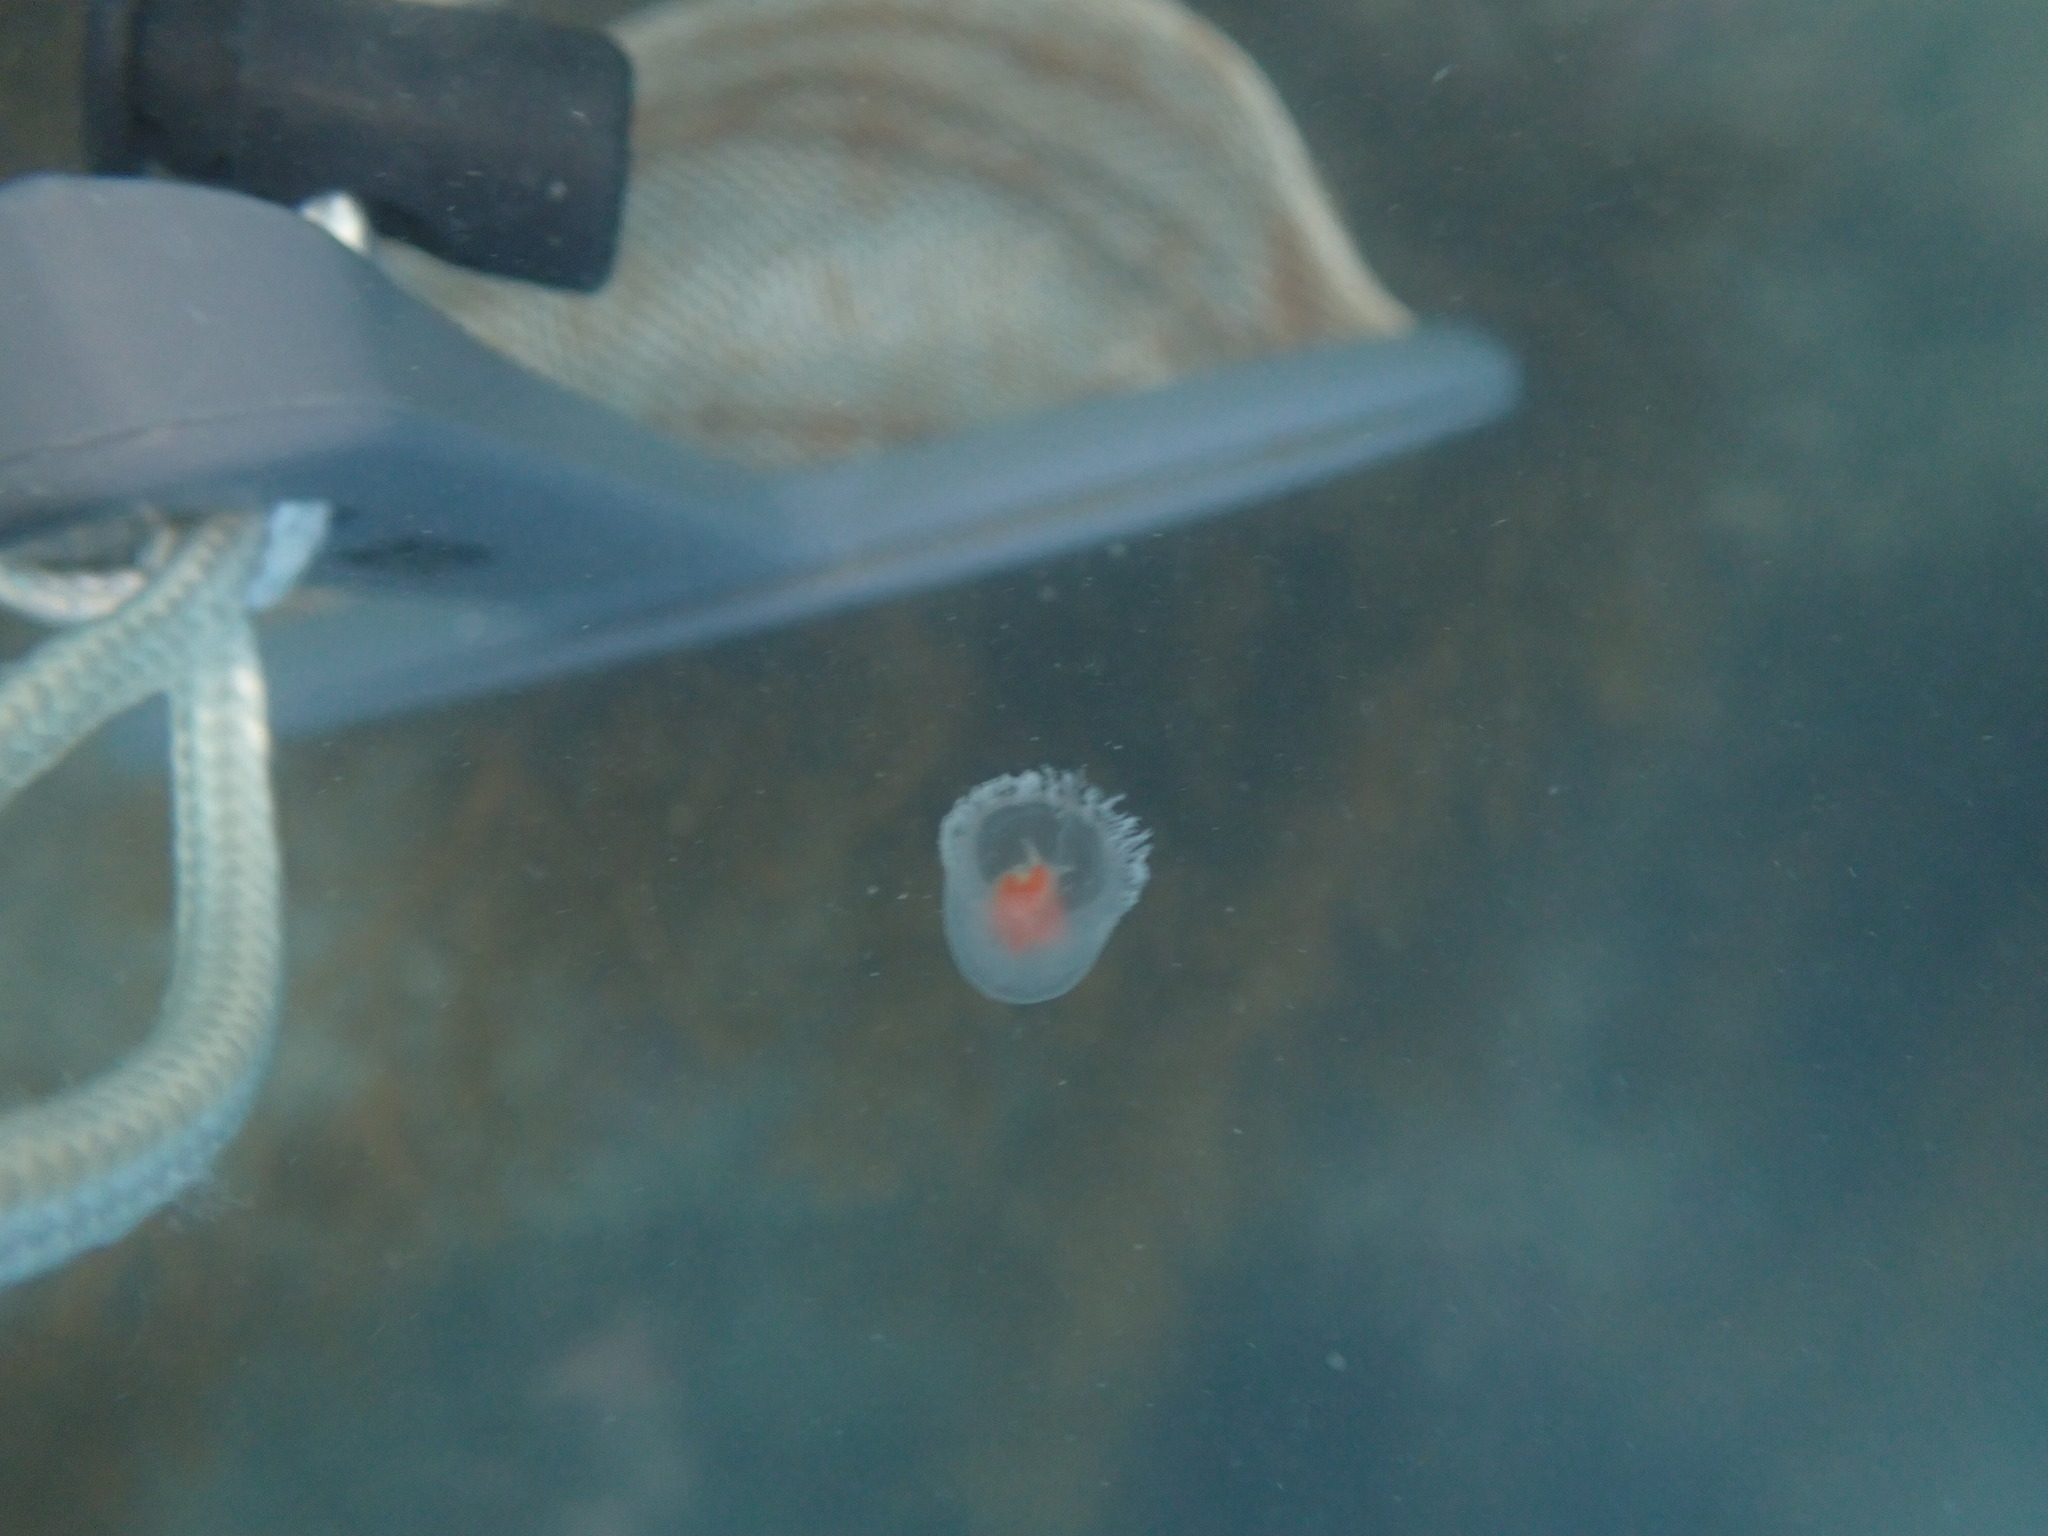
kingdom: Animalia
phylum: Cnidaria
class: Hydrozoa
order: Anthoathecata
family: Oceaniidae
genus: Turritopsis
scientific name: Turritopsis rubra
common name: Crimson jelly
